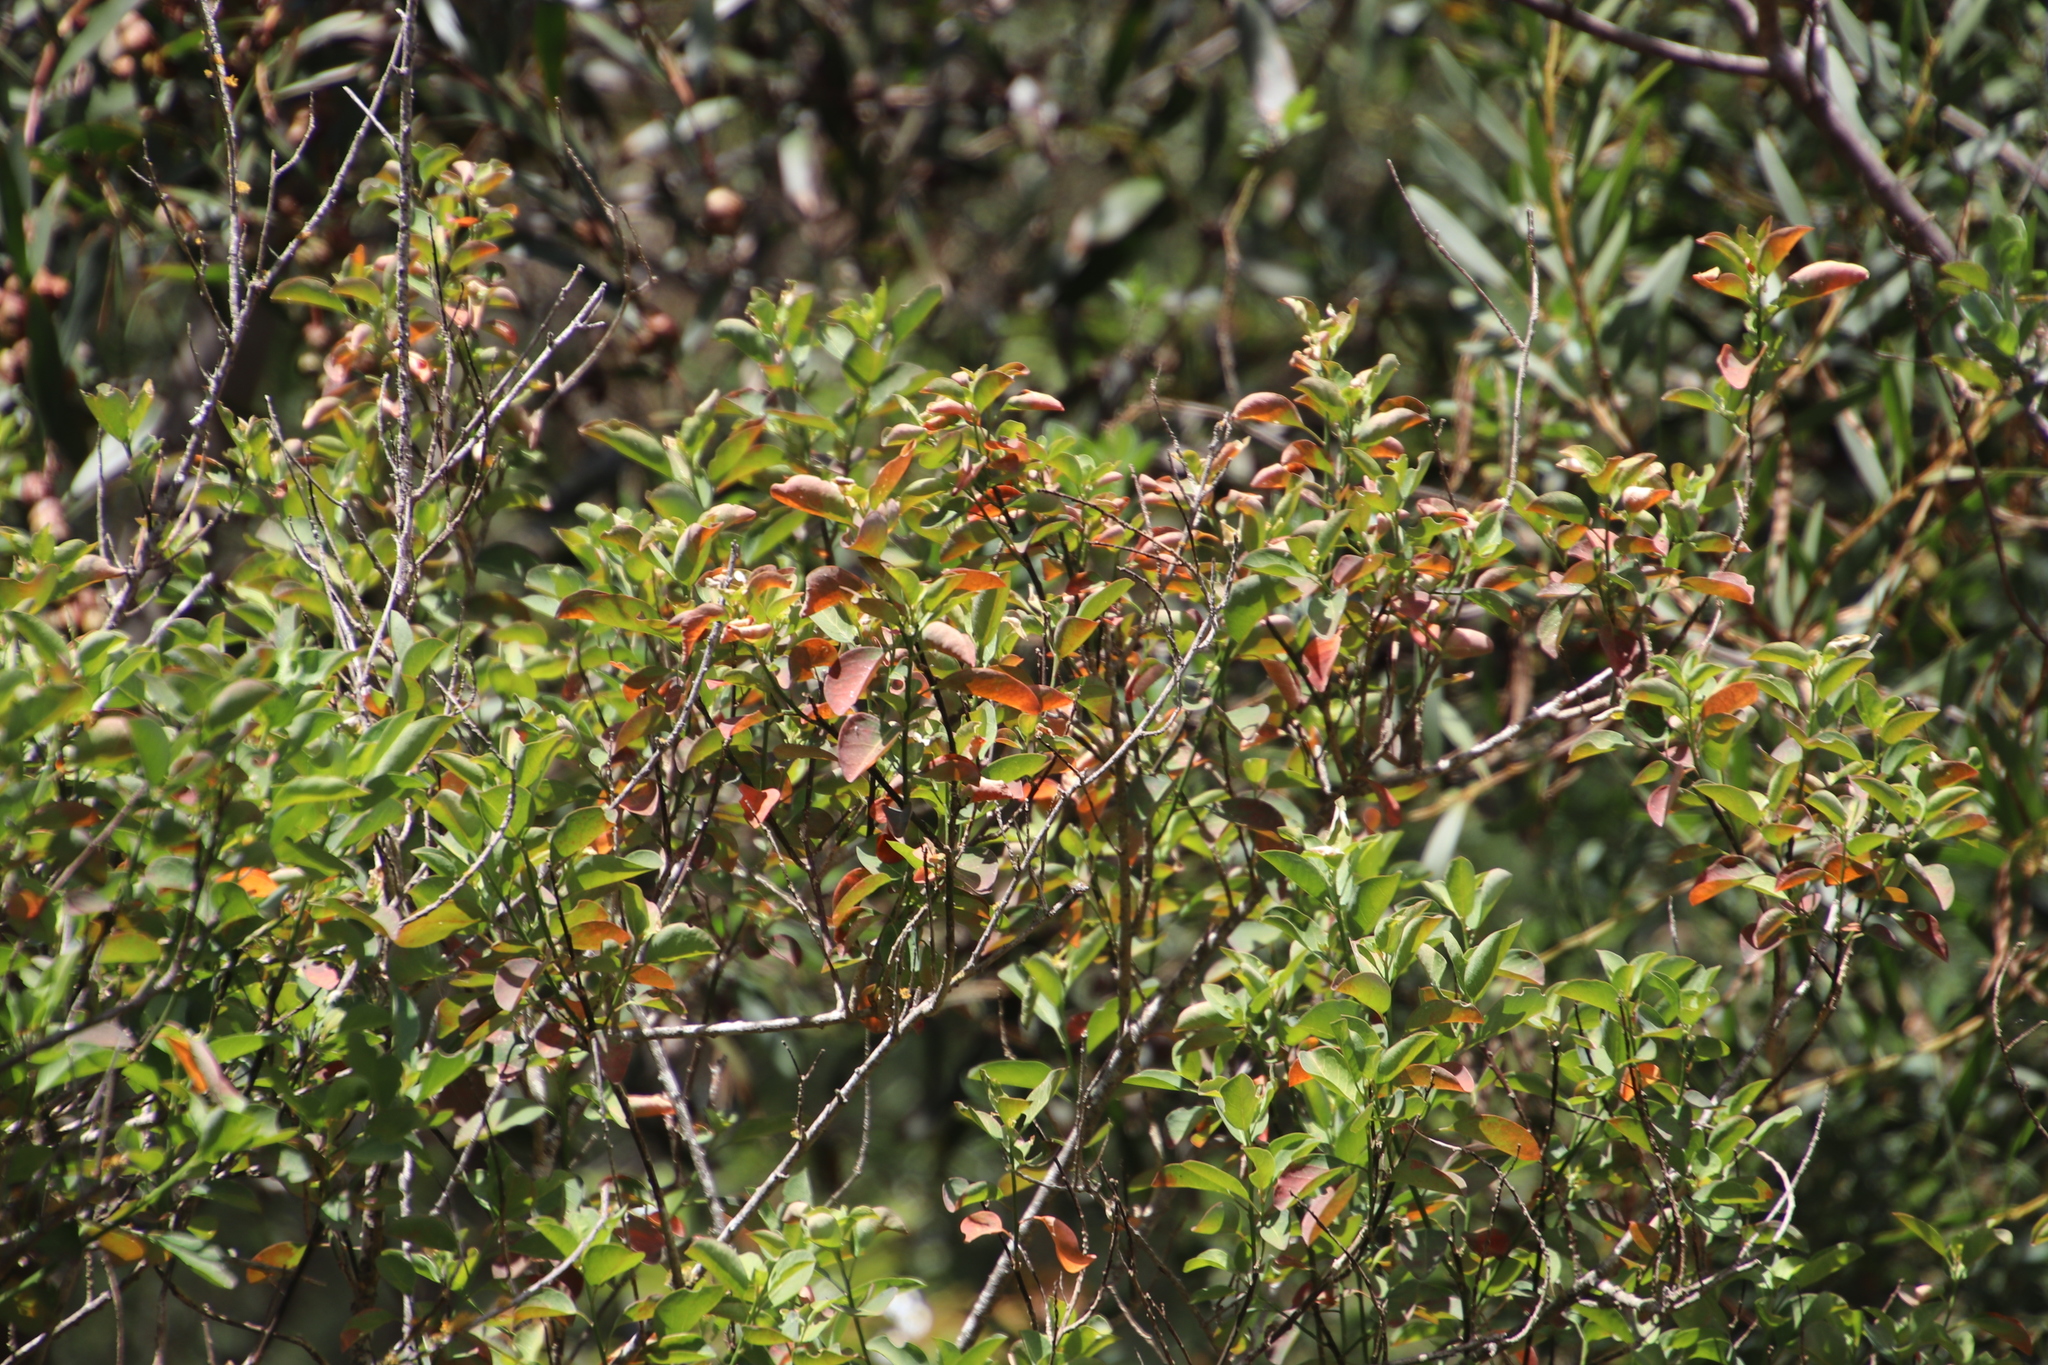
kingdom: Plantae
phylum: Tracheophyta
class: Magnoliopsida
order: Malpighiales
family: Peraceae
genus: Clutia
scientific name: Clutia pulchella
